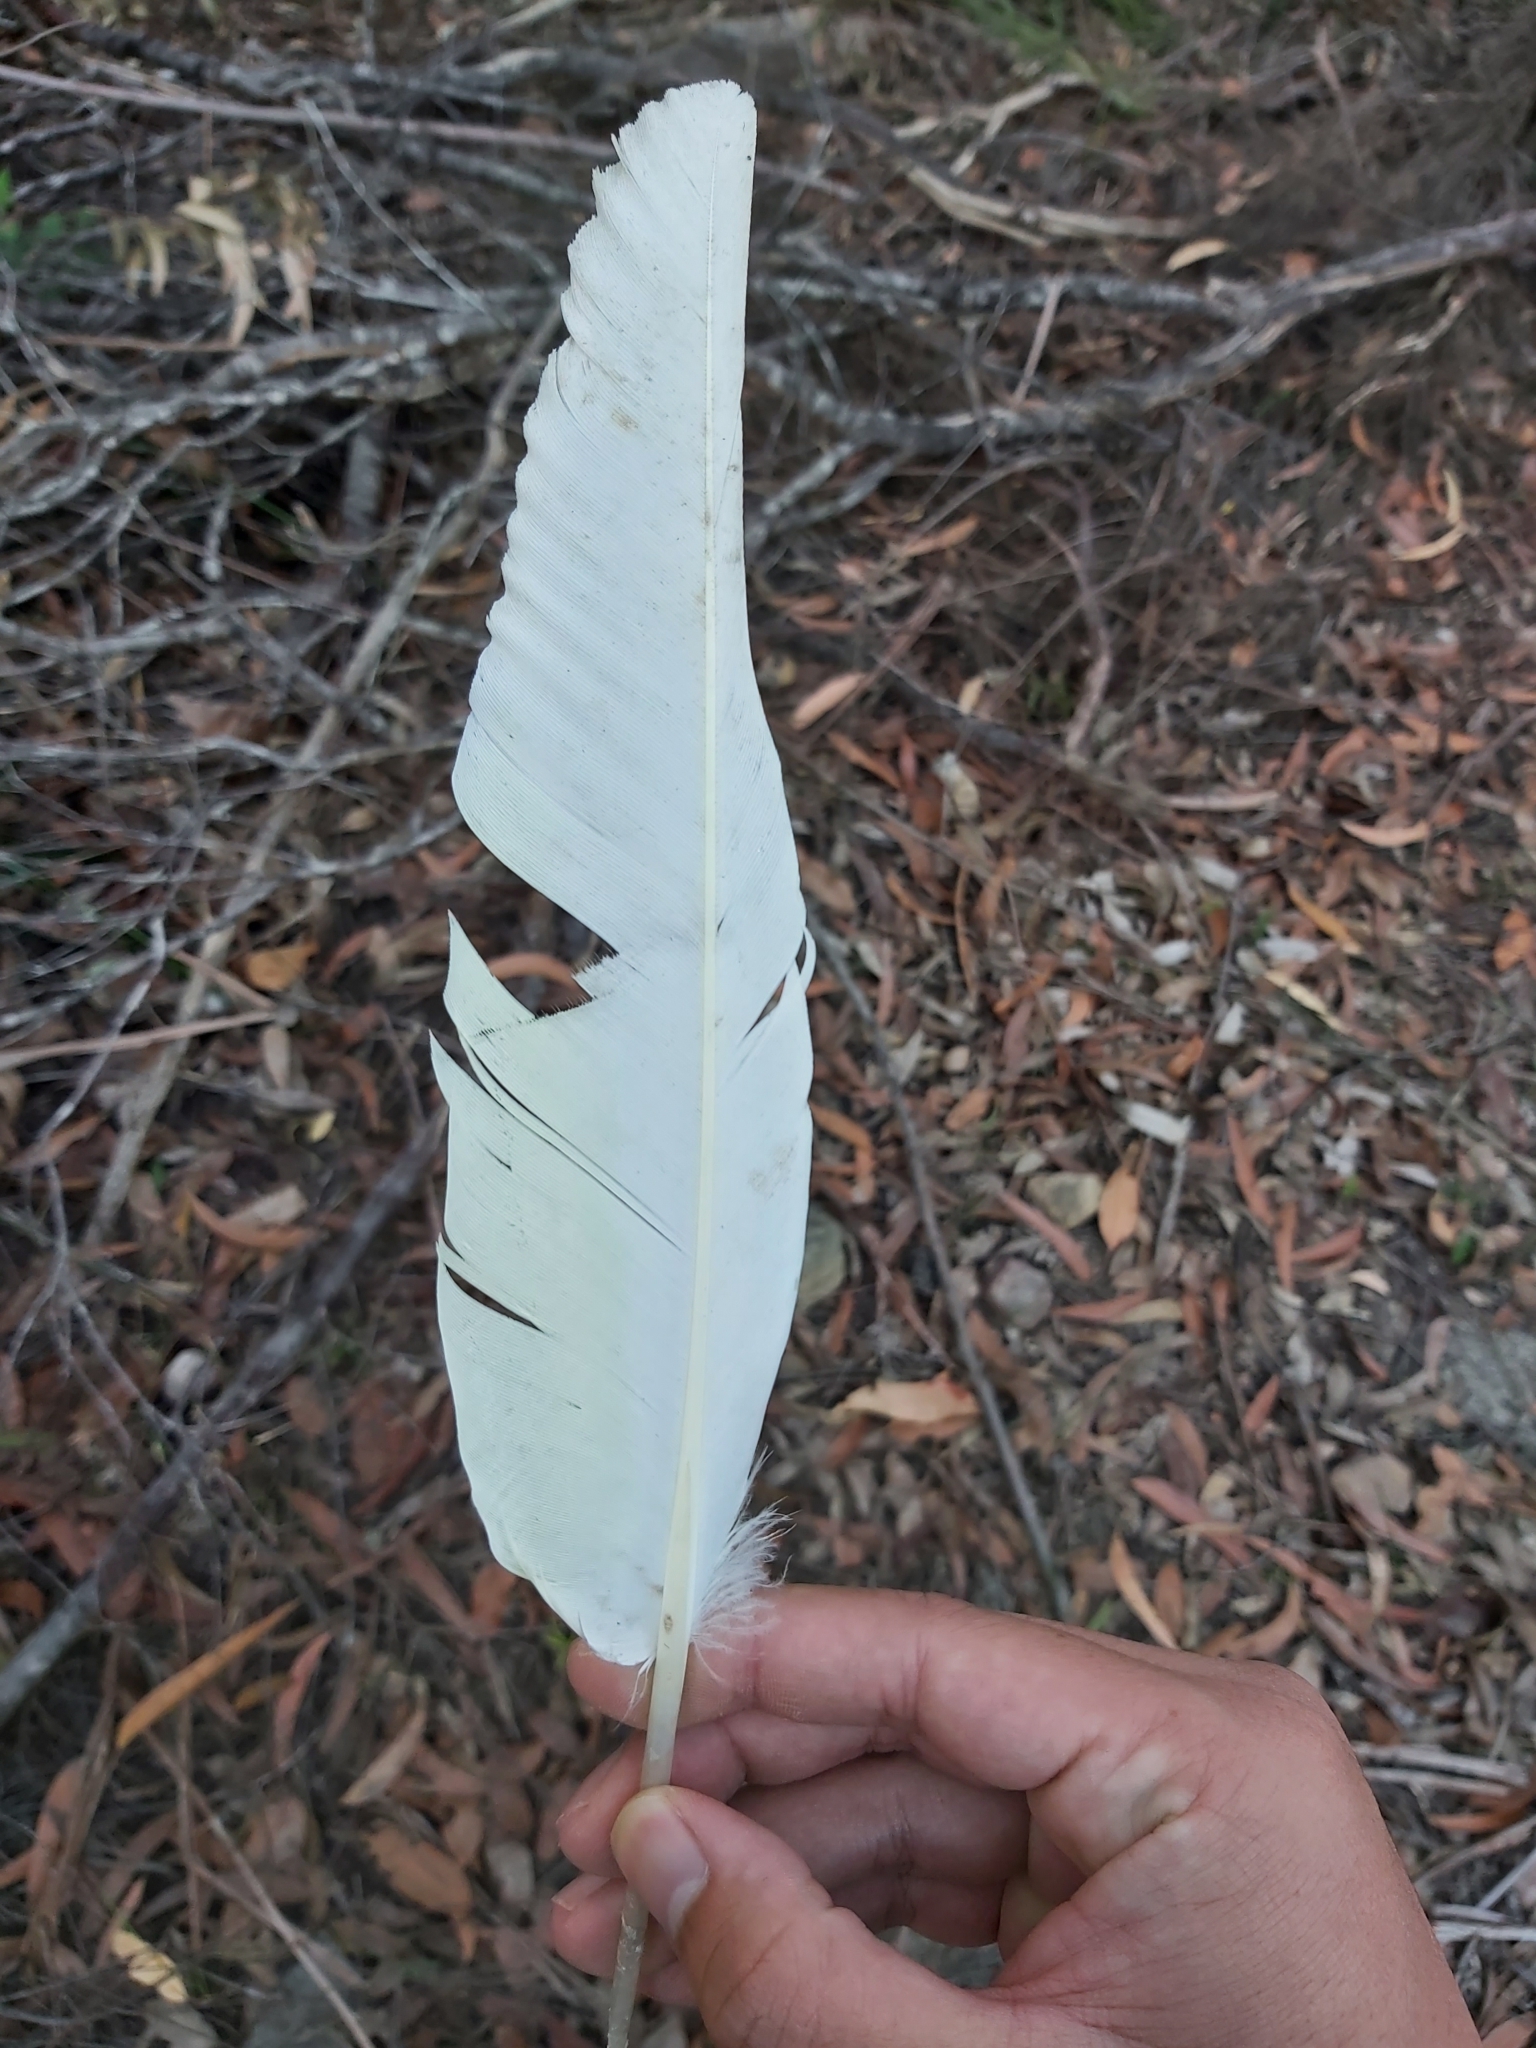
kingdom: Animalia
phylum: Chordata
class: Aves
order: Psittaciformes
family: Psittacidae
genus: Cacatua
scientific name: Cacatua galerita
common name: Sulphur-crested cockatoo
